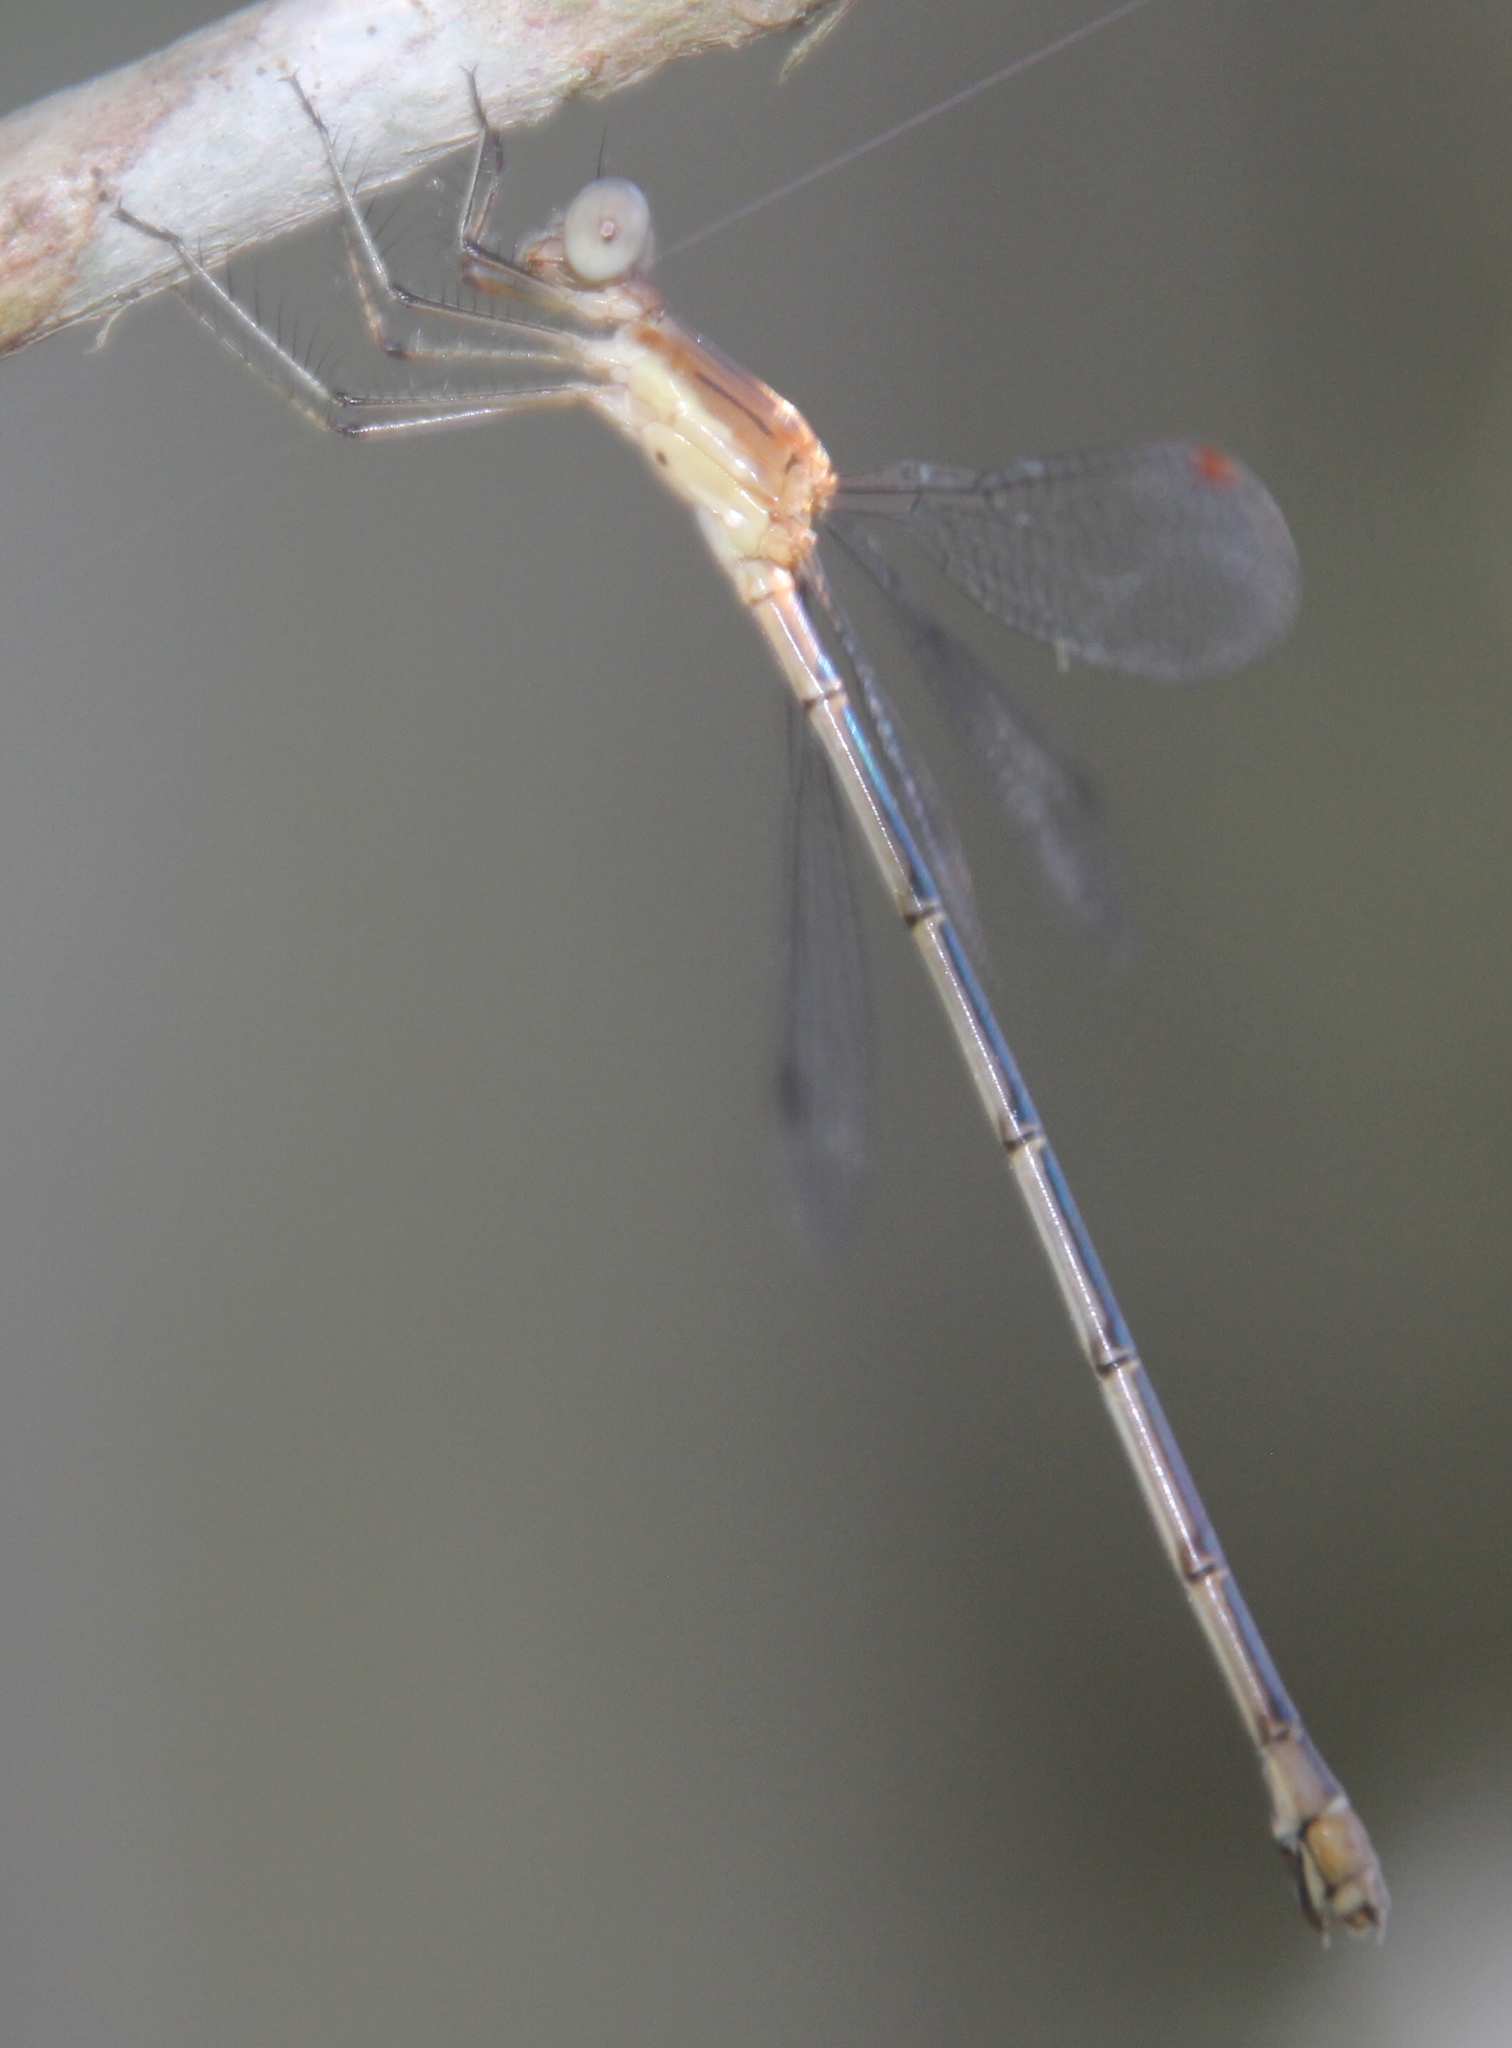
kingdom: Animalia
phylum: Arthropoda
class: Insecta
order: Odonata
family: Lestidae
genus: Lestes
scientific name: Lestes forficula
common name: Rainpool spreadwing
